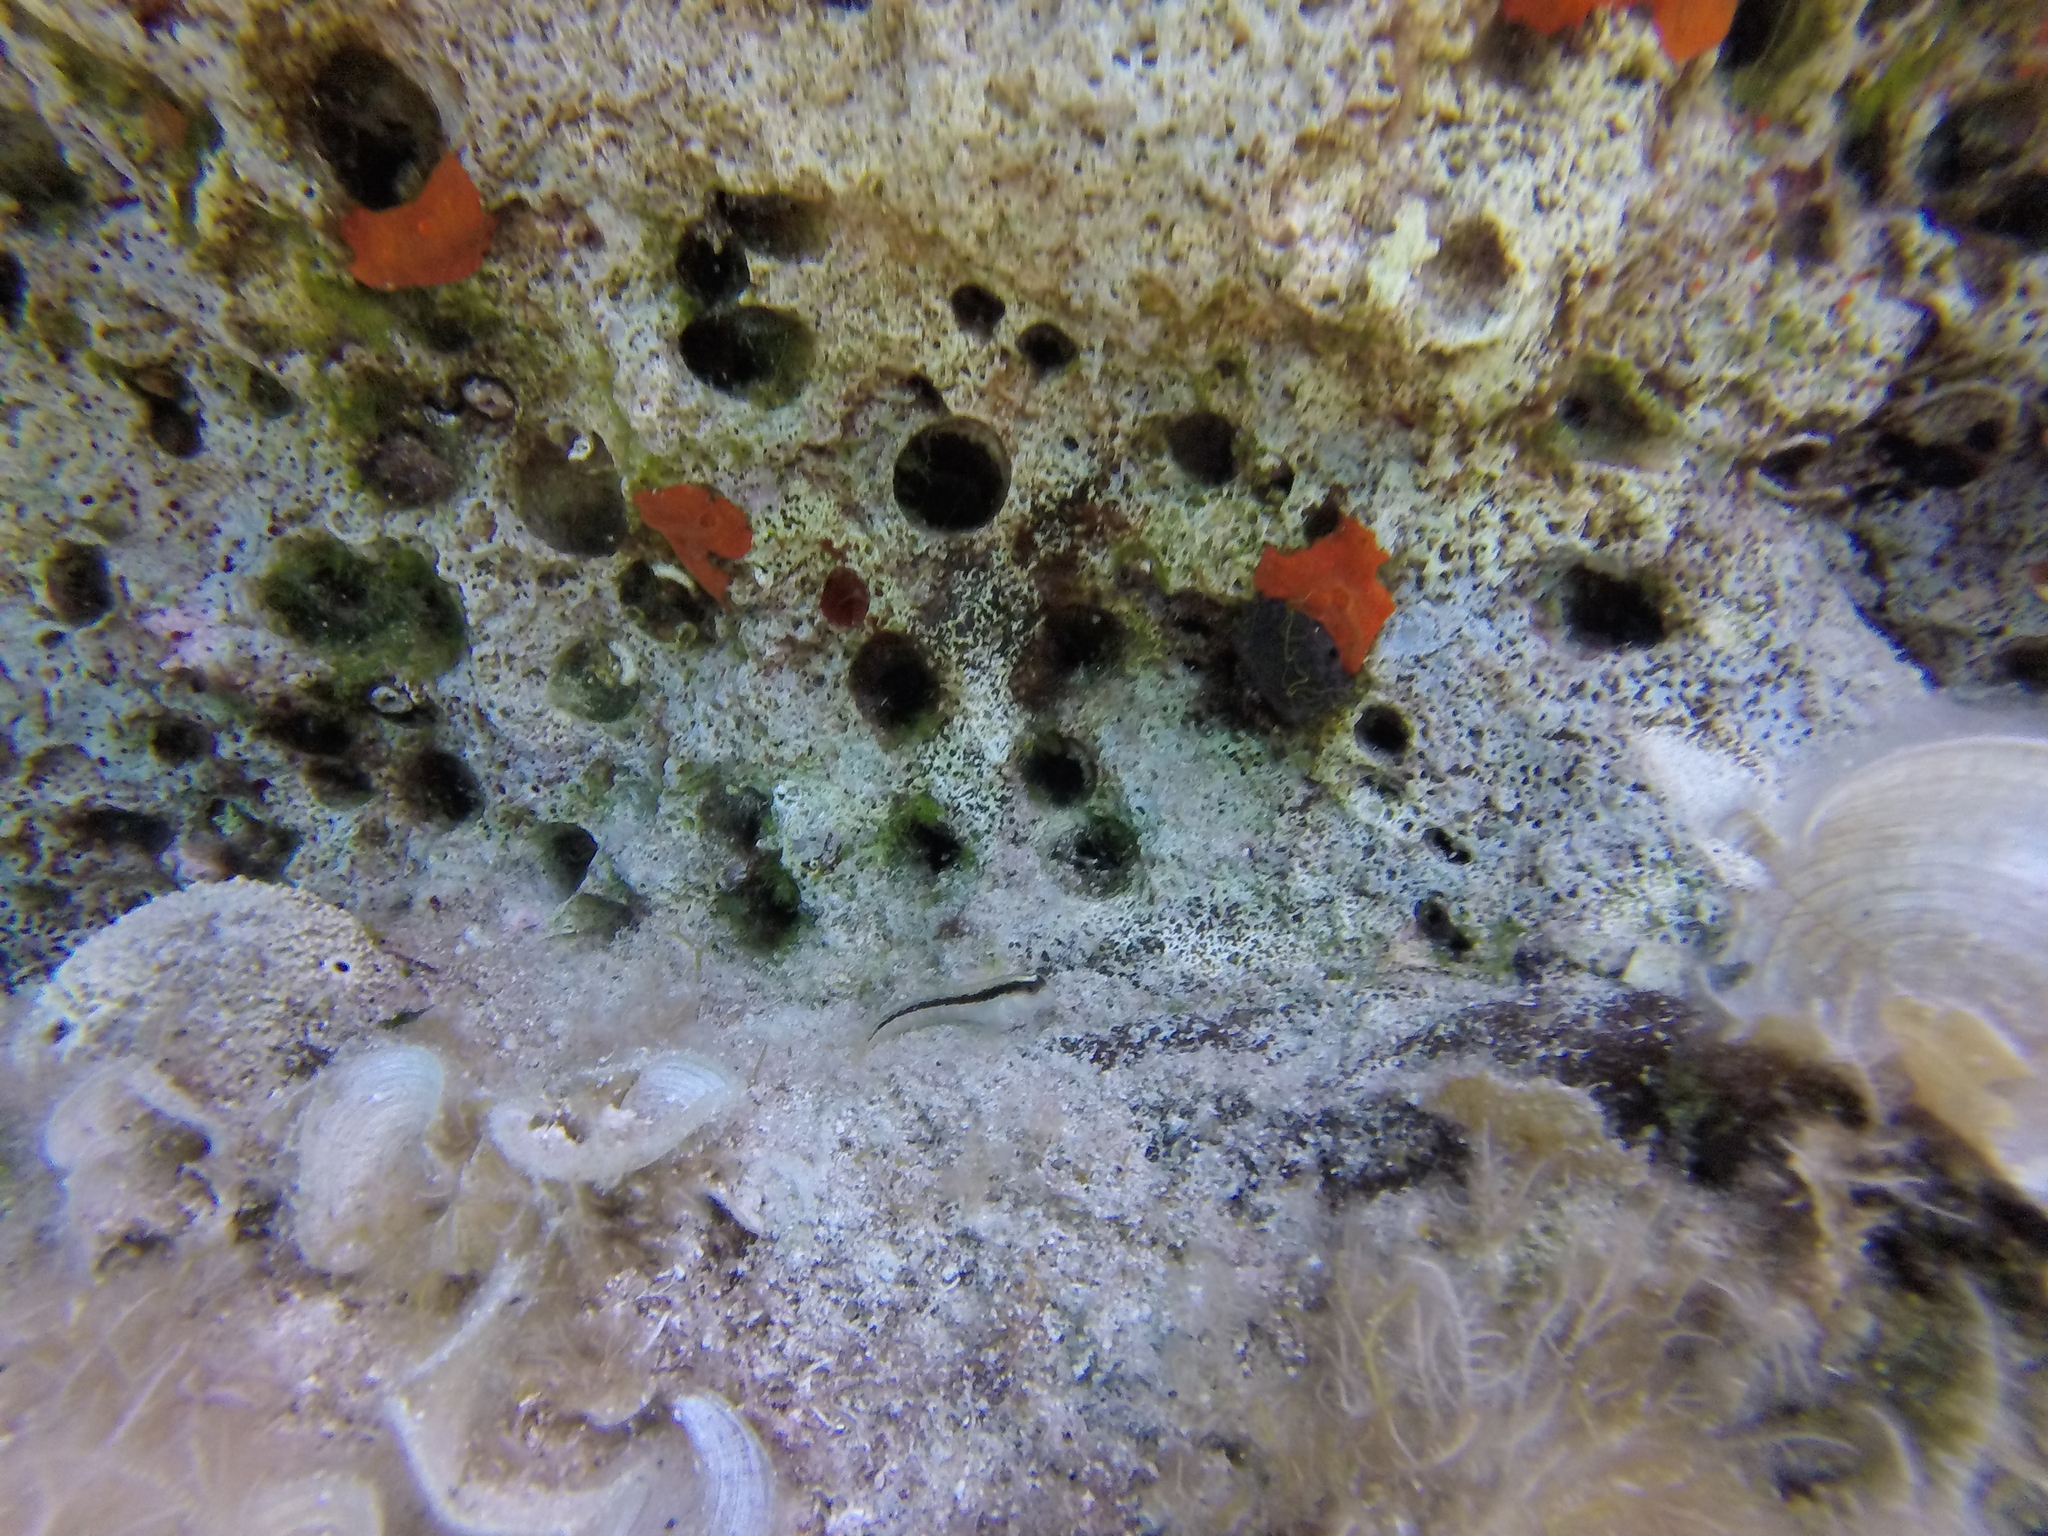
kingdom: Animalia
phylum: Chordata
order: Perciformes
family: Blenniidae
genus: Parablennius
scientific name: Parablennius rouxi
